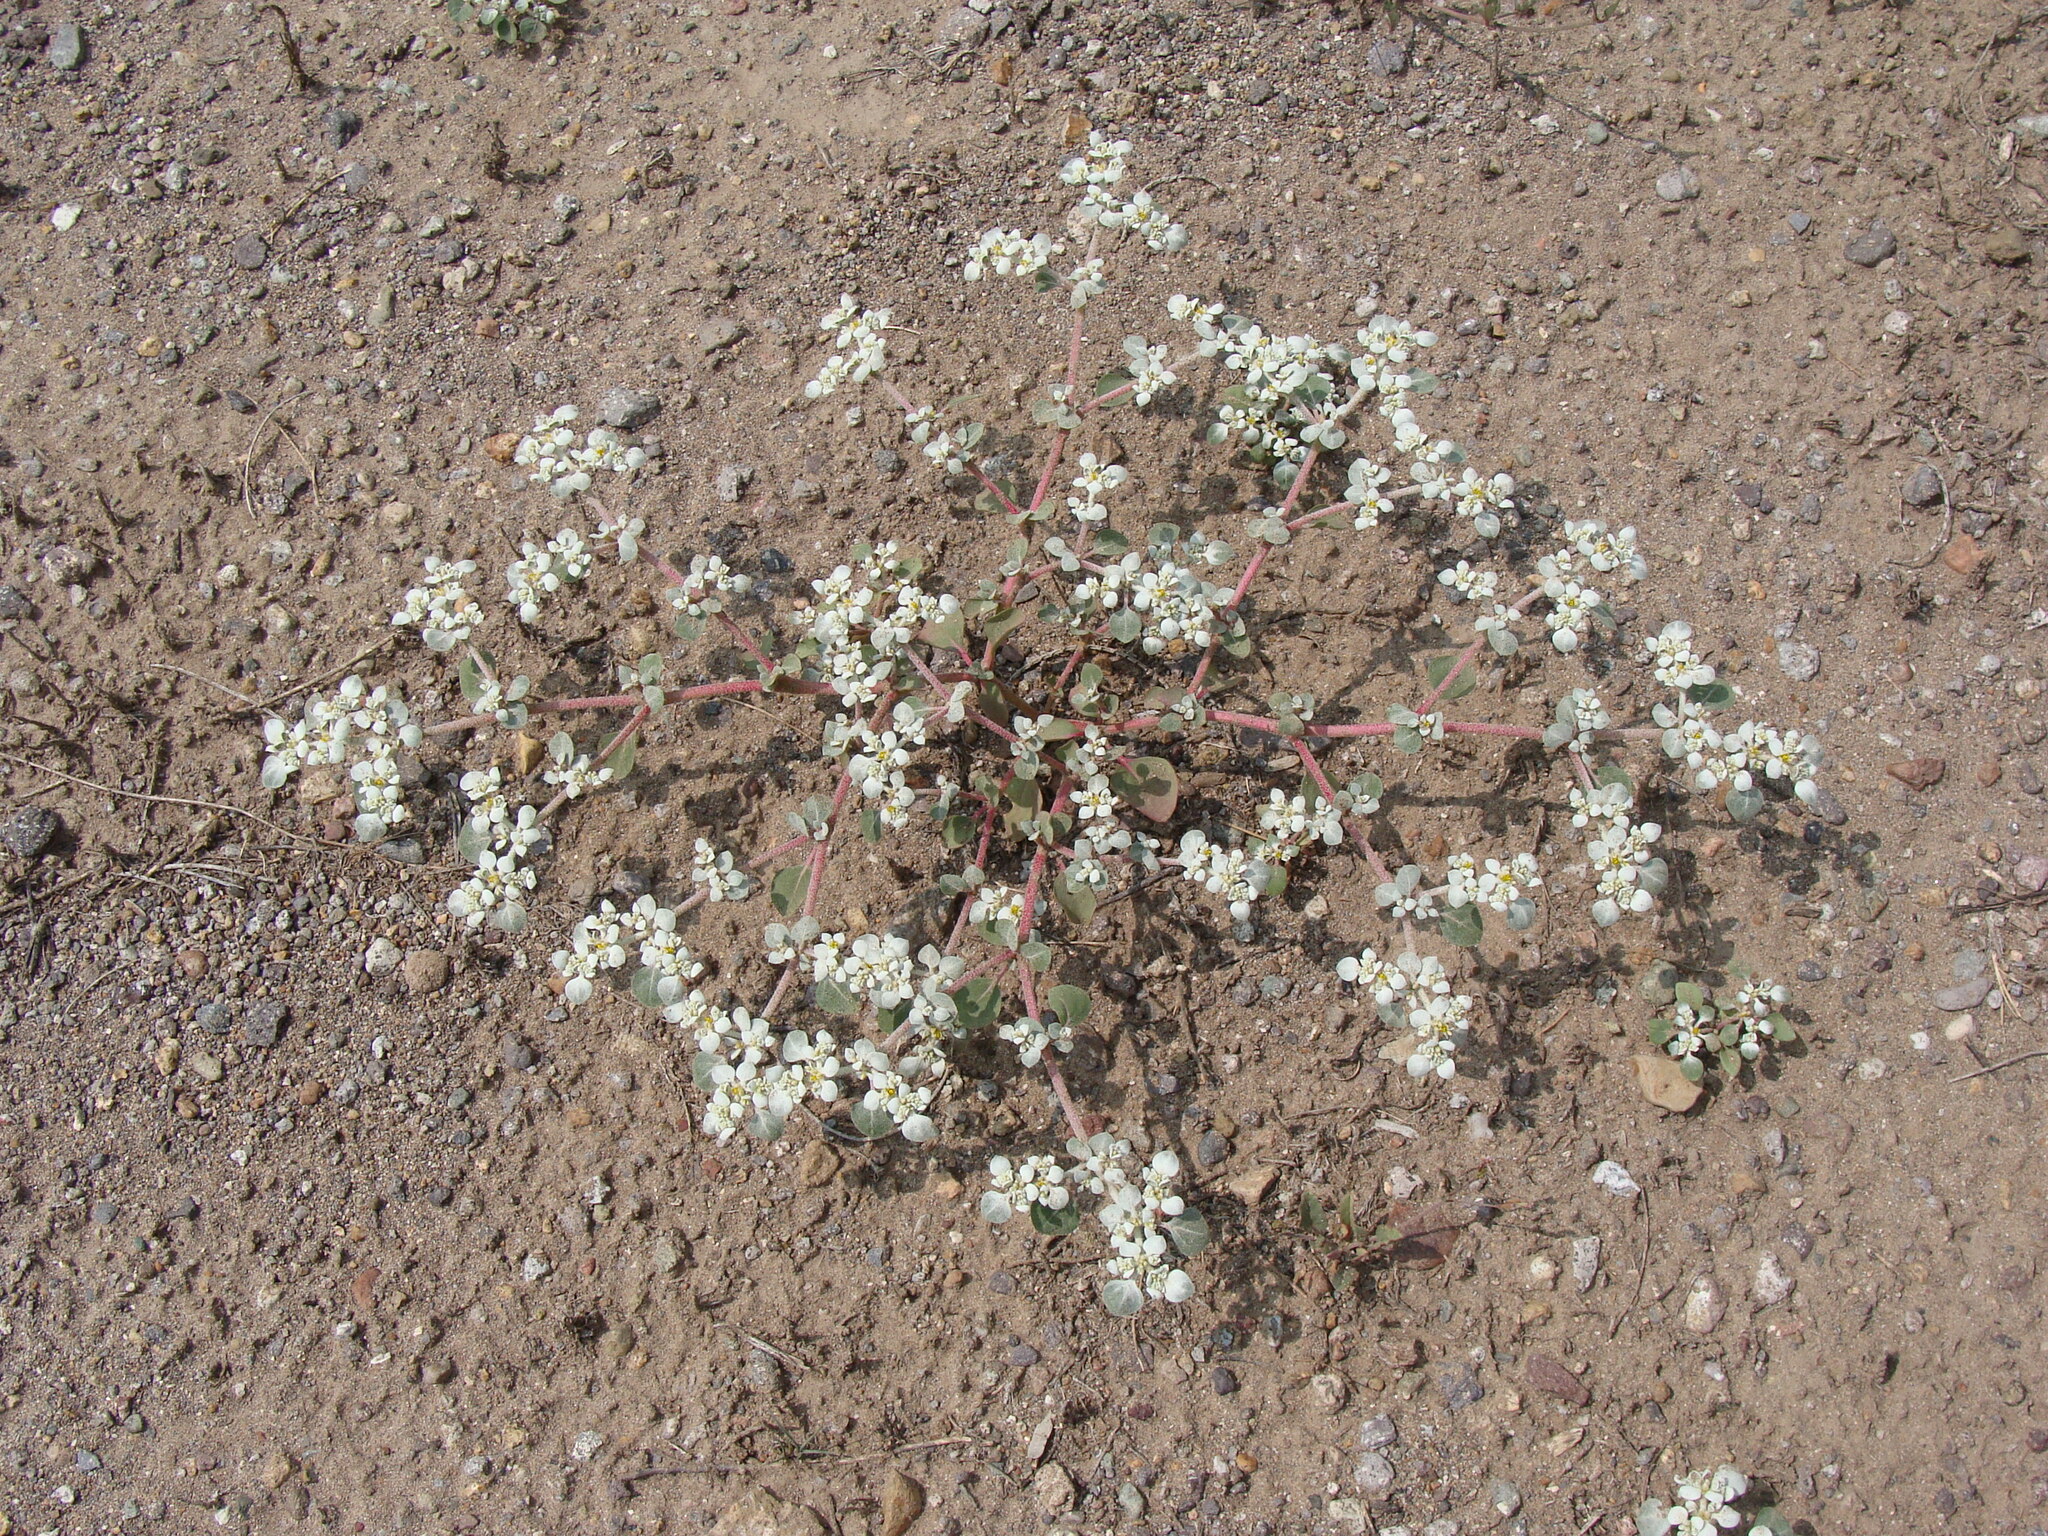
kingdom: Plantae
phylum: Tracheophyta
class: Magnoliopsida
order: Caryophyllales
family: Amaranthaceae
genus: Tidestromia
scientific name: Tidestromia lanuginosa
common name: Woolly tidestromia
